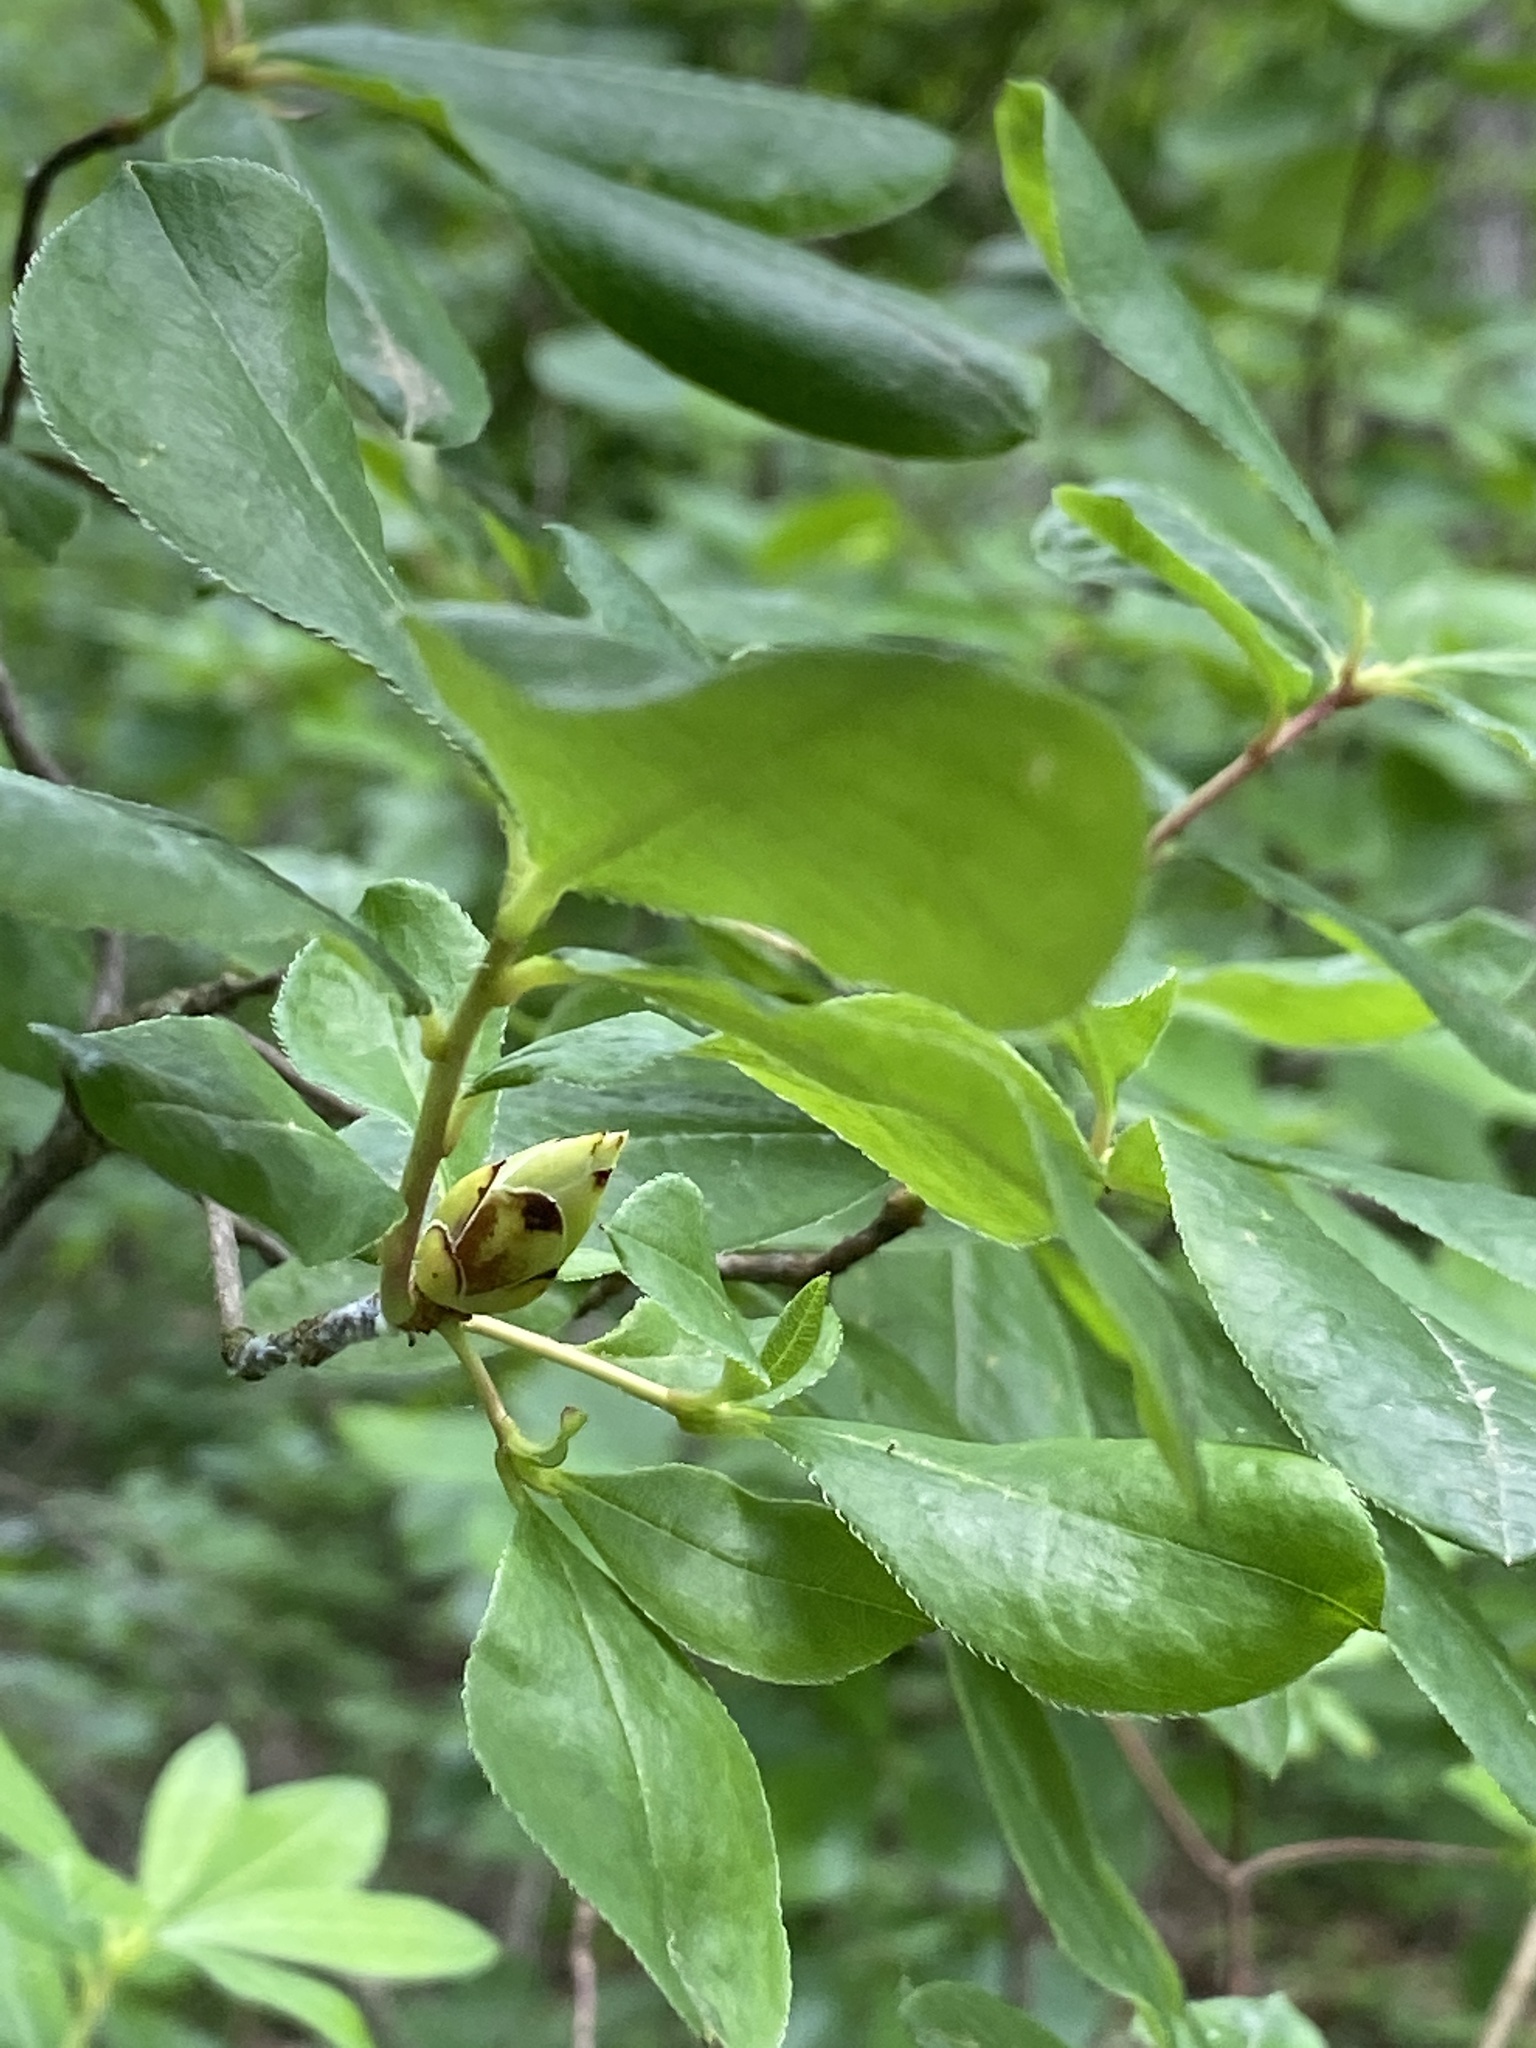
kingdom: Plantae
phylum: Tracheophyta
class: Magnoliopsida
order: Ericales
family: Ericaceae
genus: Rhododendron
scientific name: Rhododendron viscosum
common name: Clammy azalea
